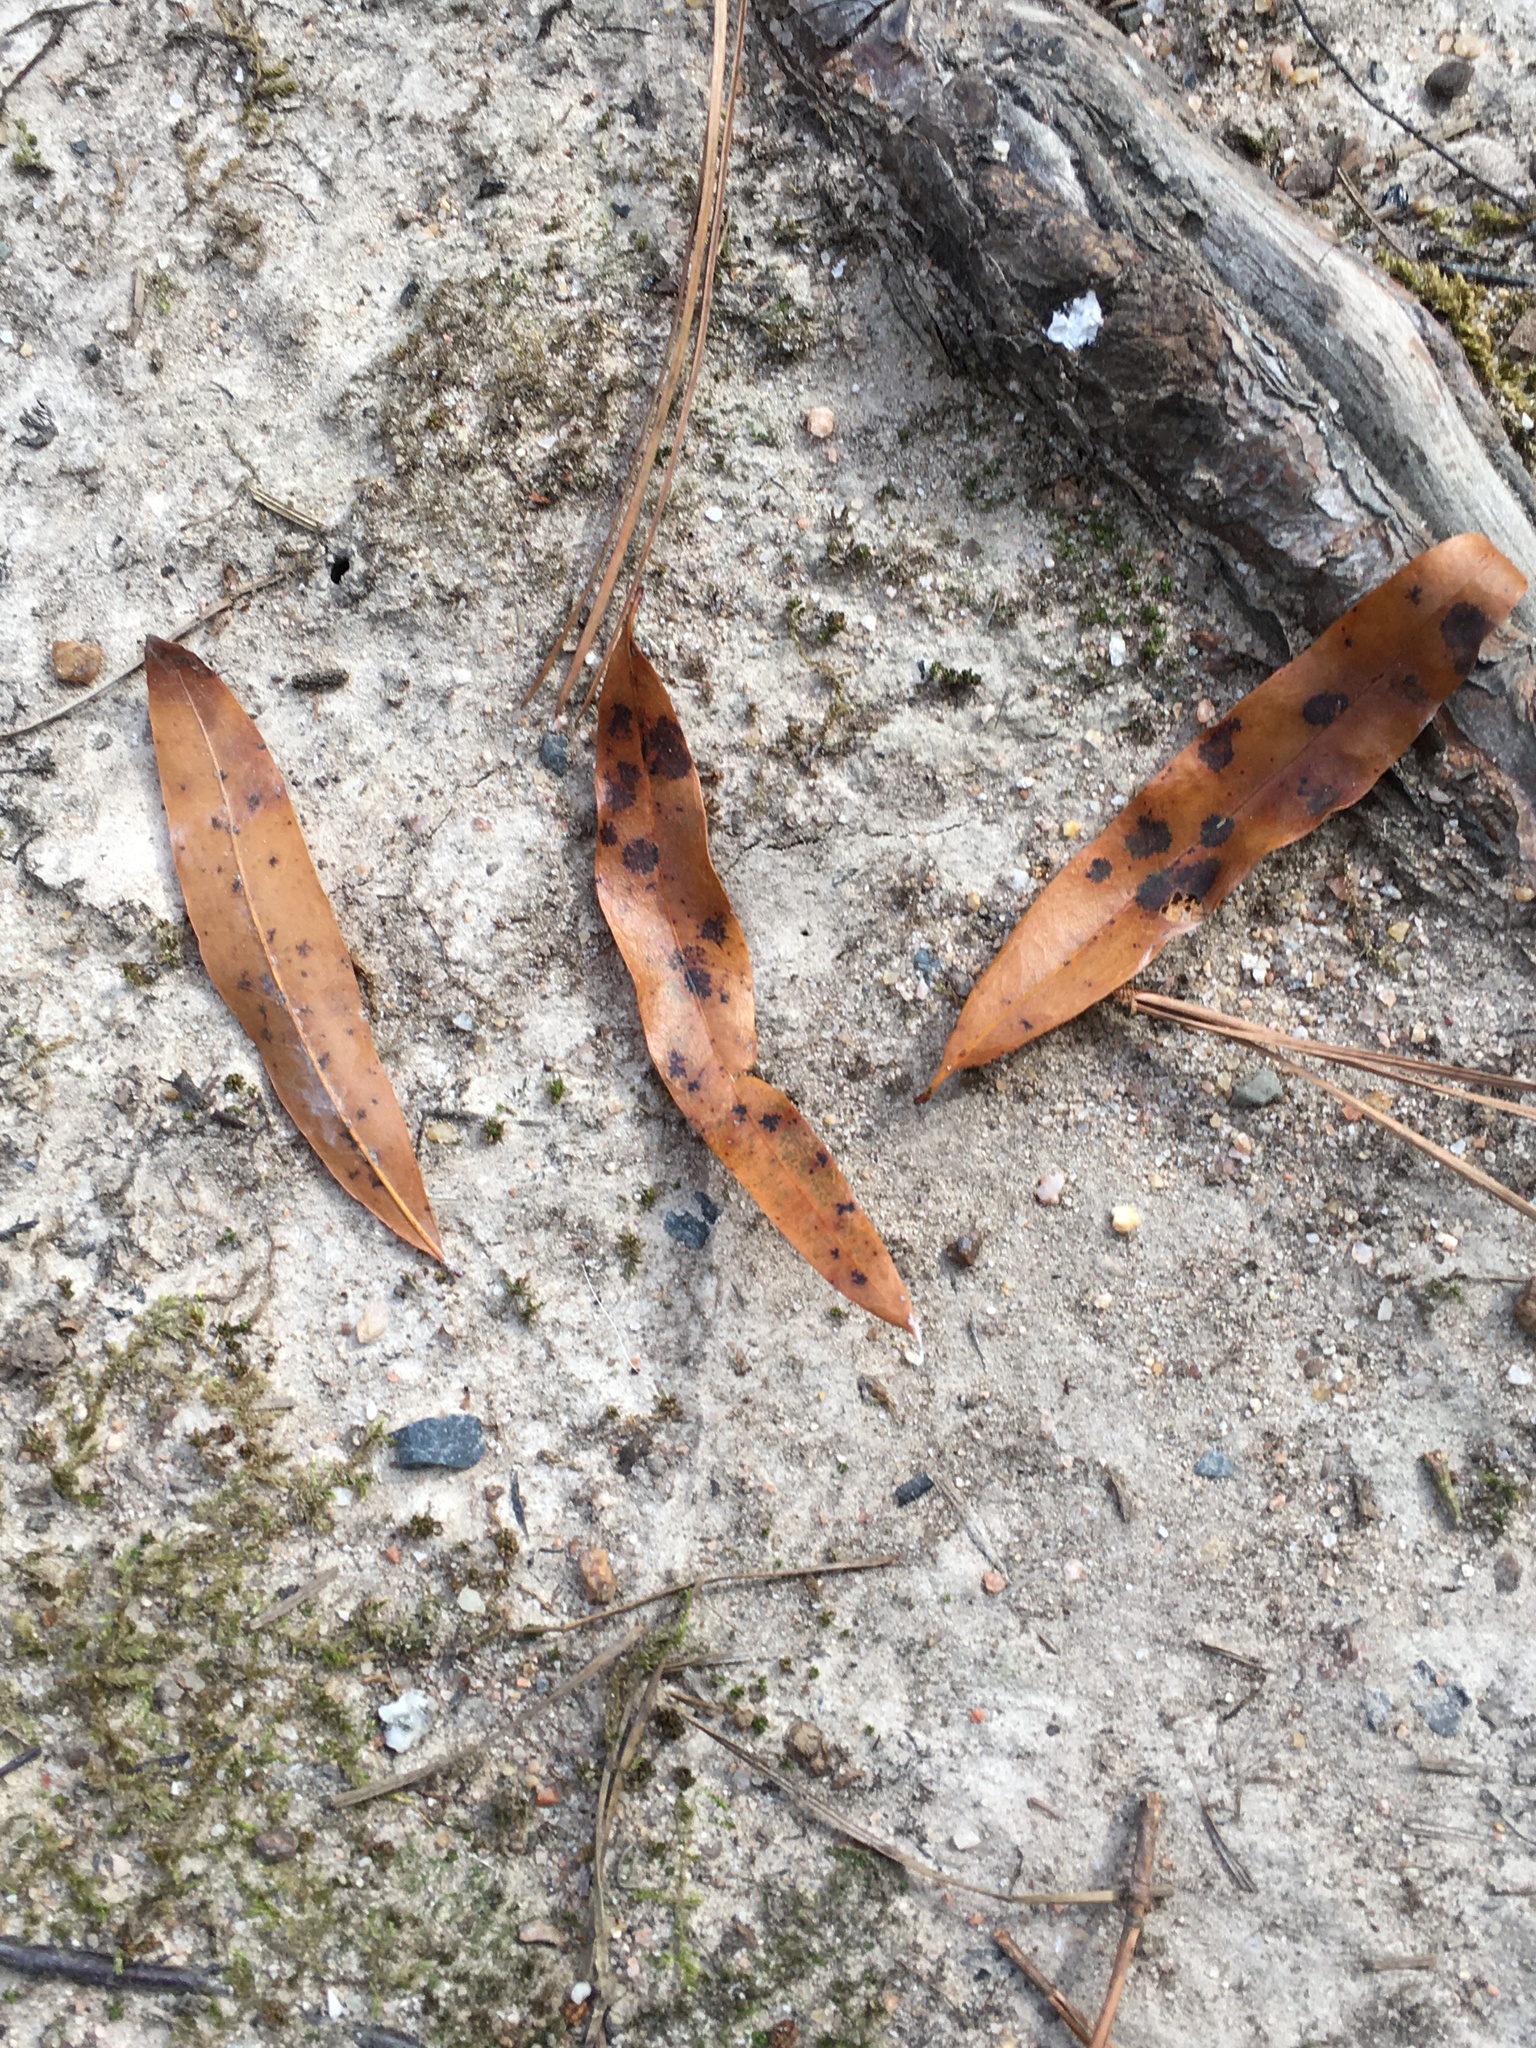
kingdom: Plantae
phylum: Tracheophyta
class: Magnoliopsida
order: Fagales
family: Fagaceae
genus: Quercus
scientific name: Quercus phellos
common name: Willow oak
